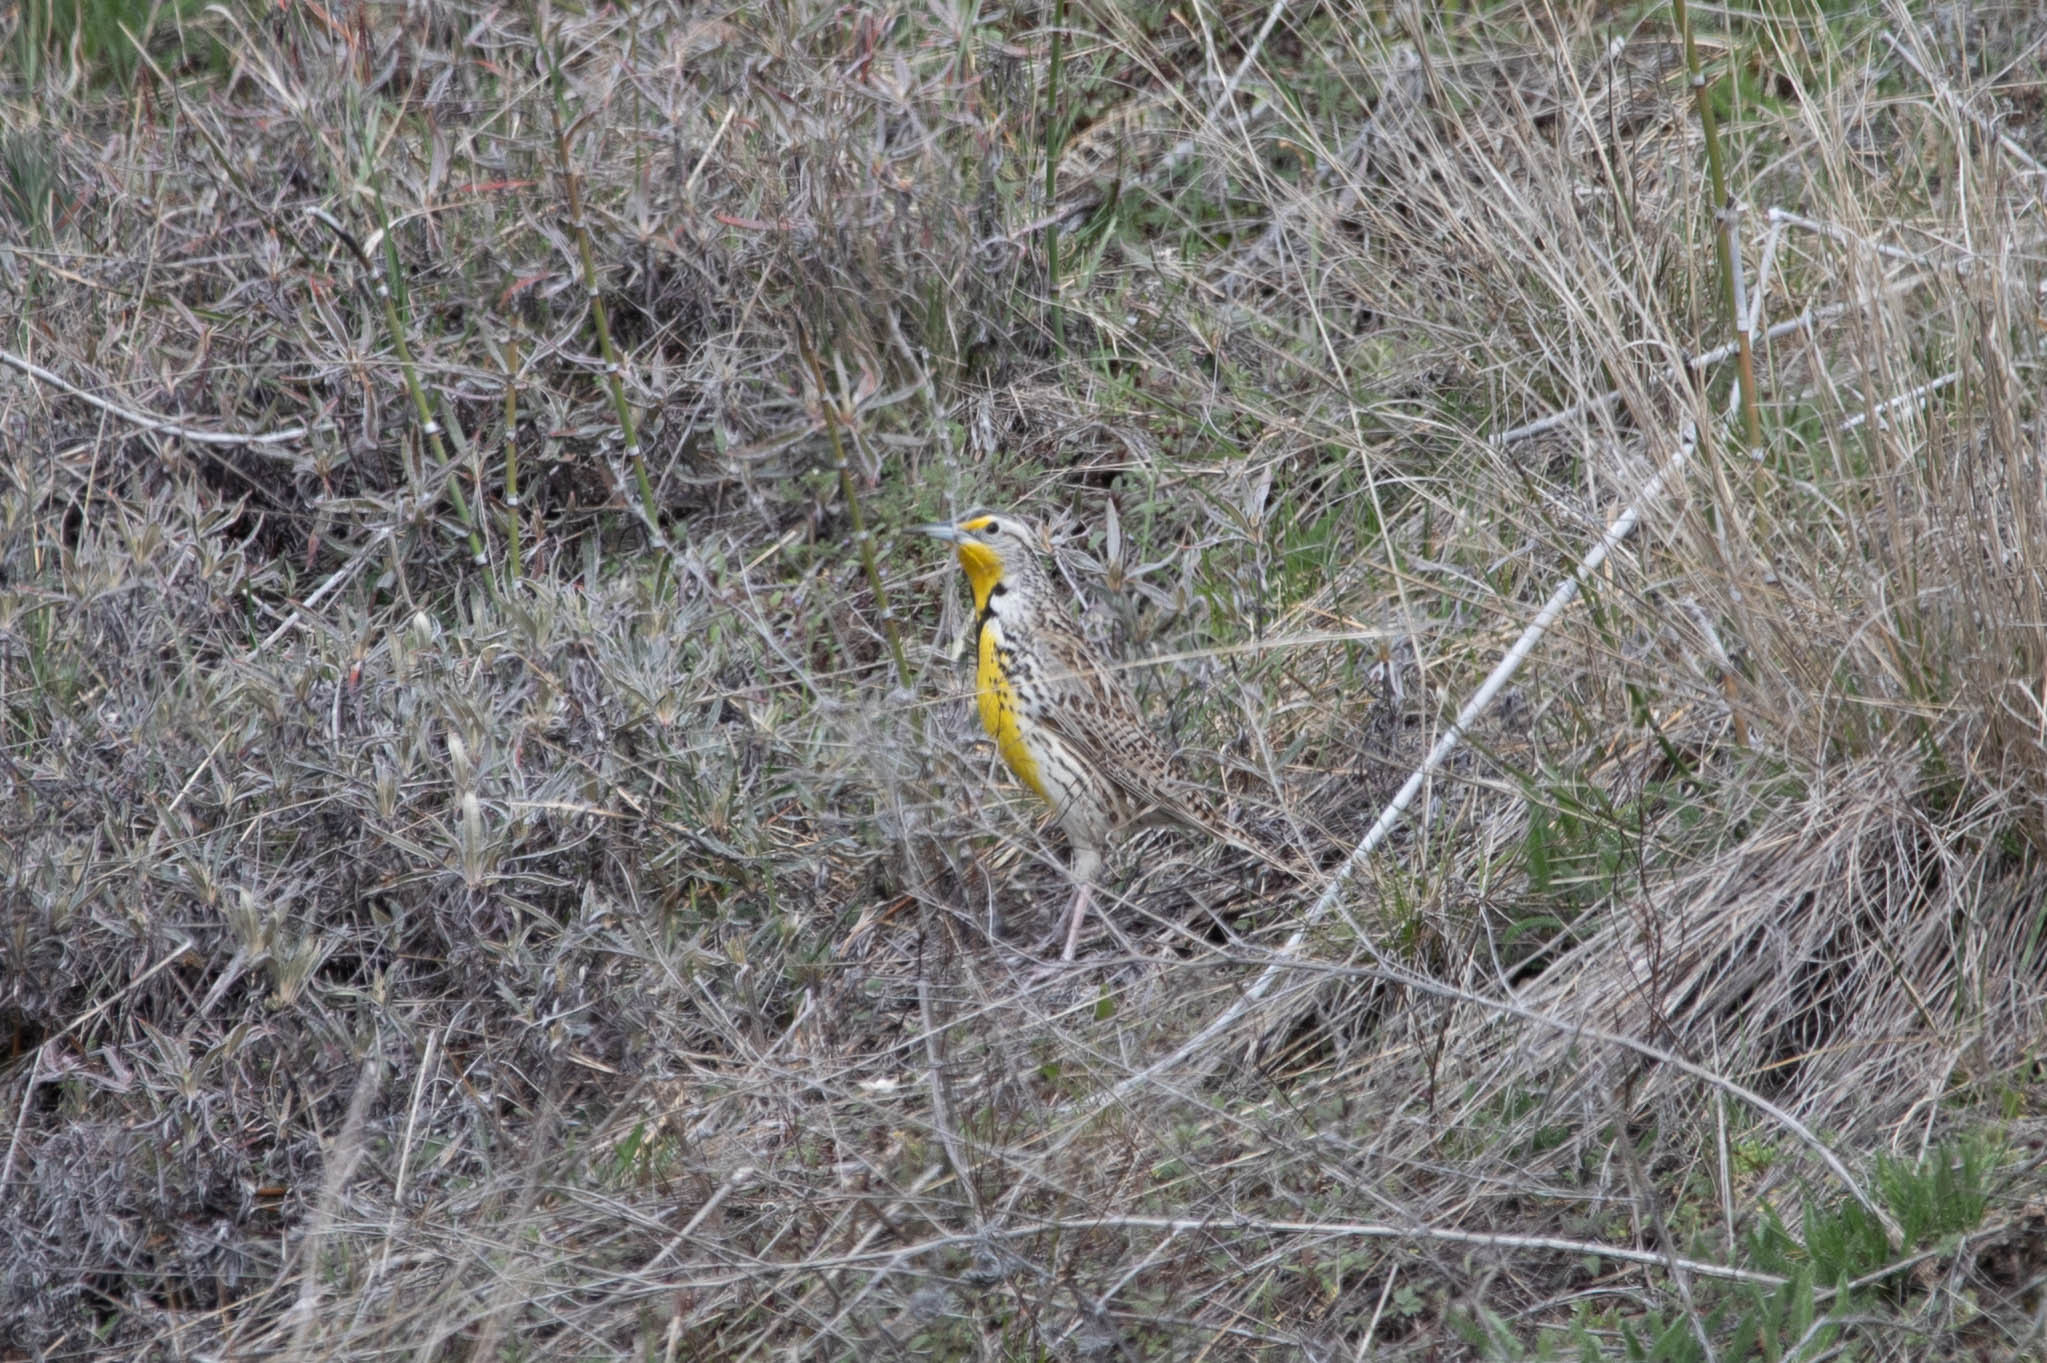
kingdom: Animalia
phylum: Chordata
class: Aves
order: Passeriformes
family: Icteridae
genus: Sturnella
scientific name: Sturnella neglecta
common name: Western meadowlark
